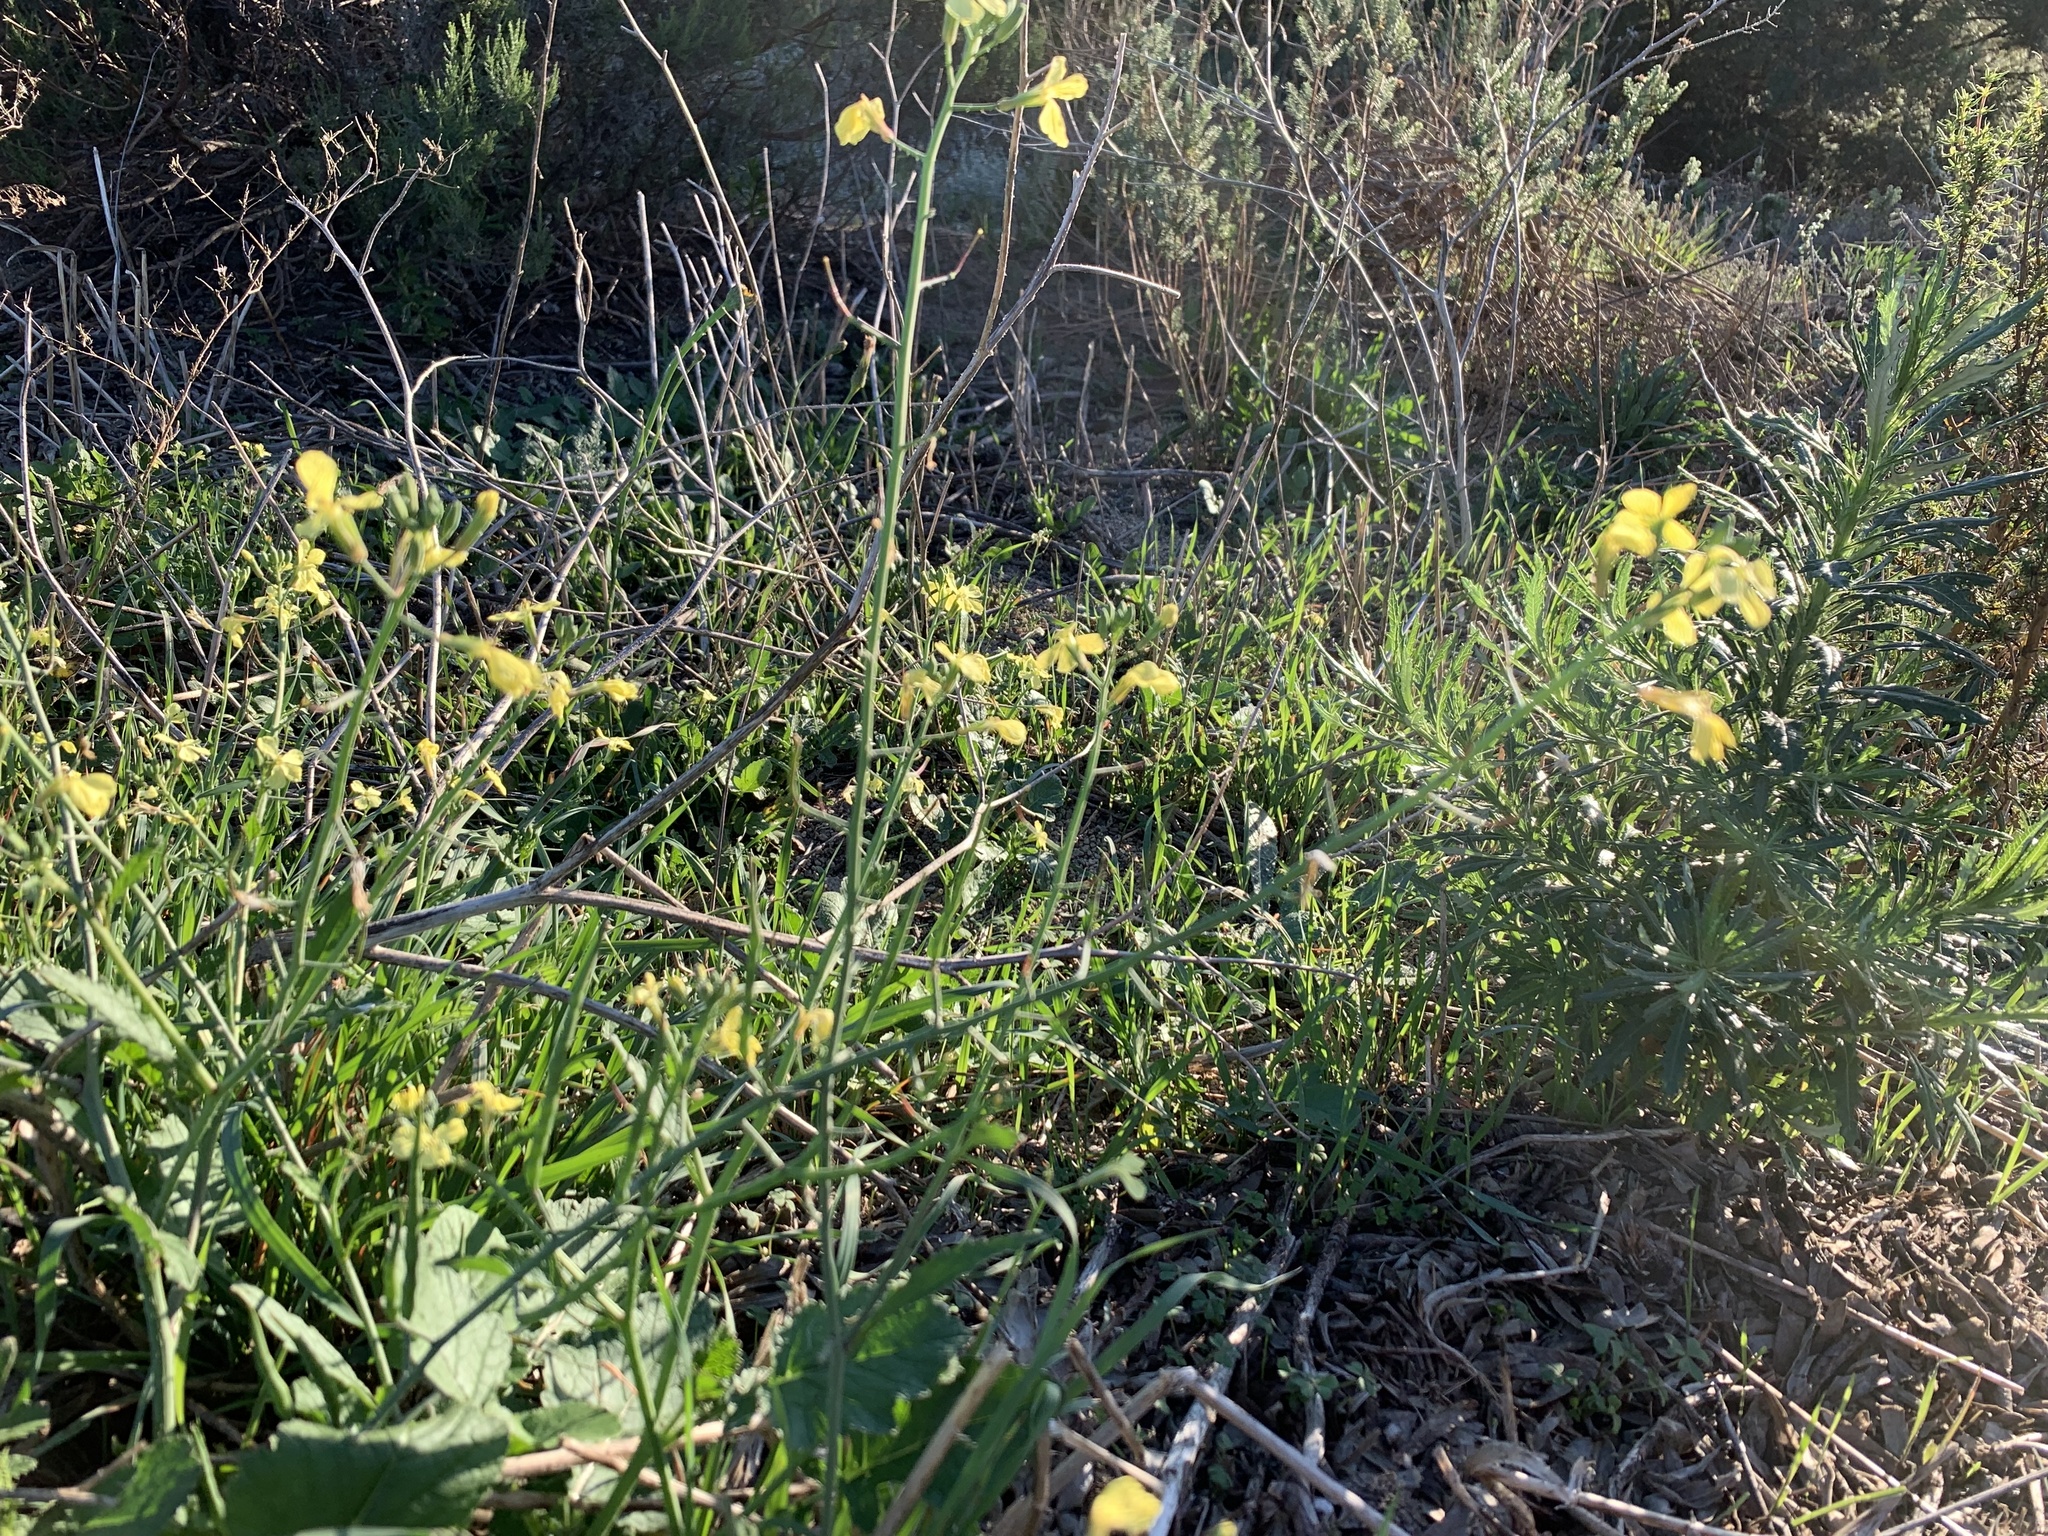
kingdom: Plantae
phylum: Tracheophyta
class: Magnoliopsida
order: Brassicales
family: Brassicaceae
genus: Raphanus
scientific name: Raphanus raphanistrum
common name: Wild radish
